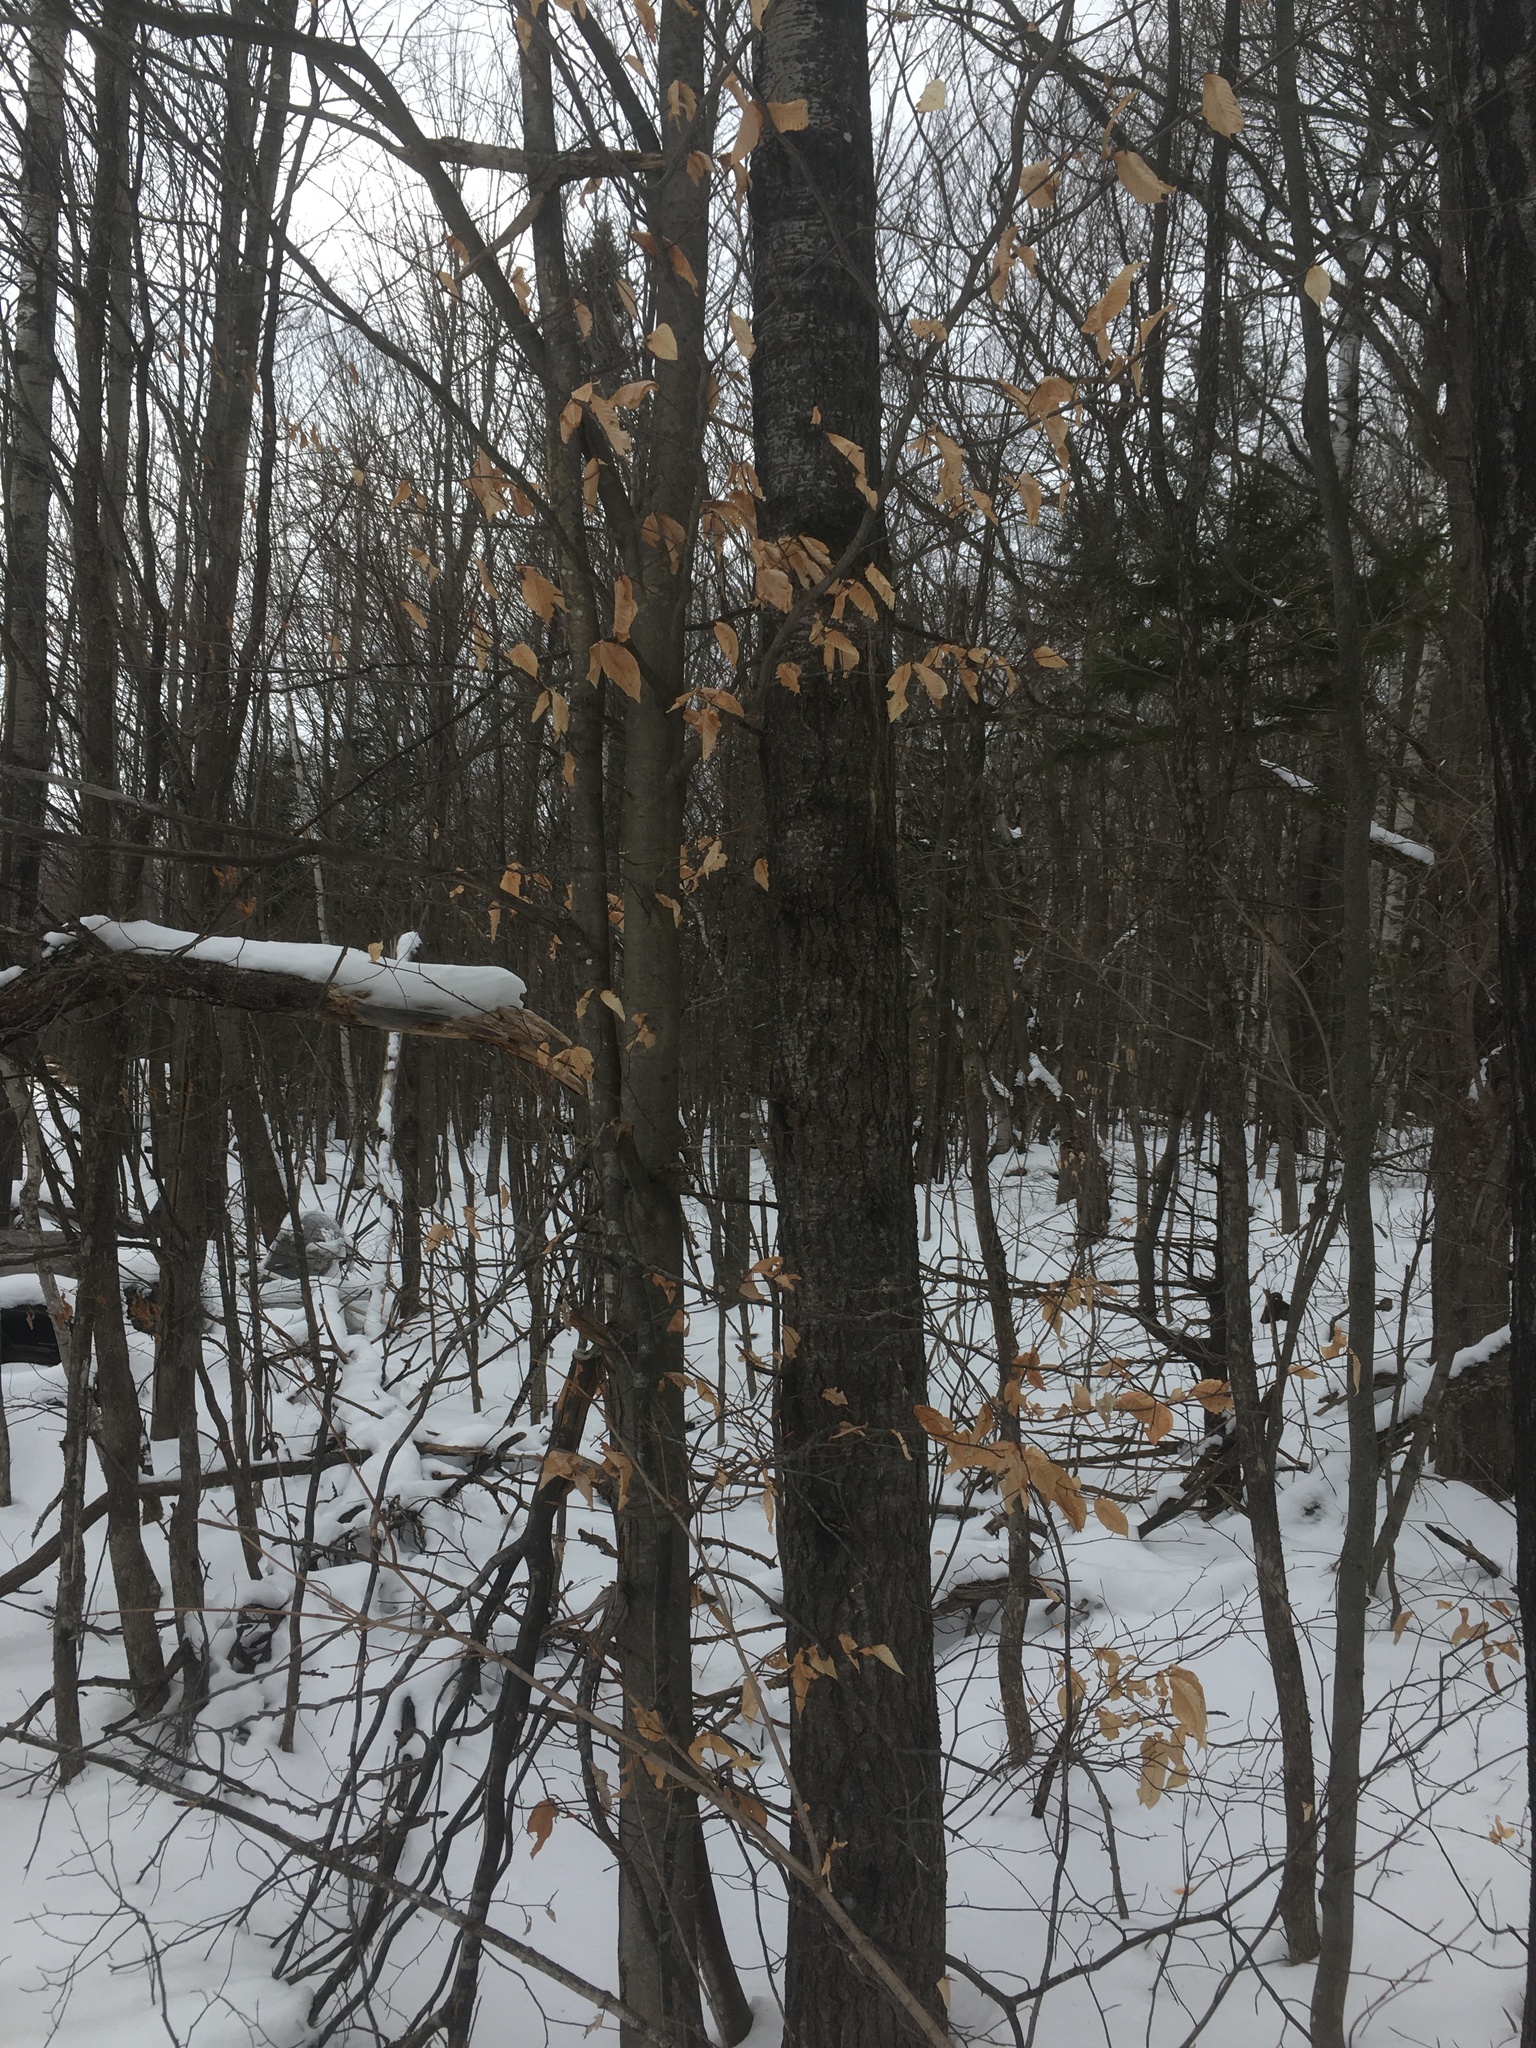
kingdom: Plantae
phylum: Tracheophyta
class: Magnoliopsida
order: Fagales
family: Fagaceae
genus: Fagus
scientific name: Fagus grandifolia
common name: American beech
